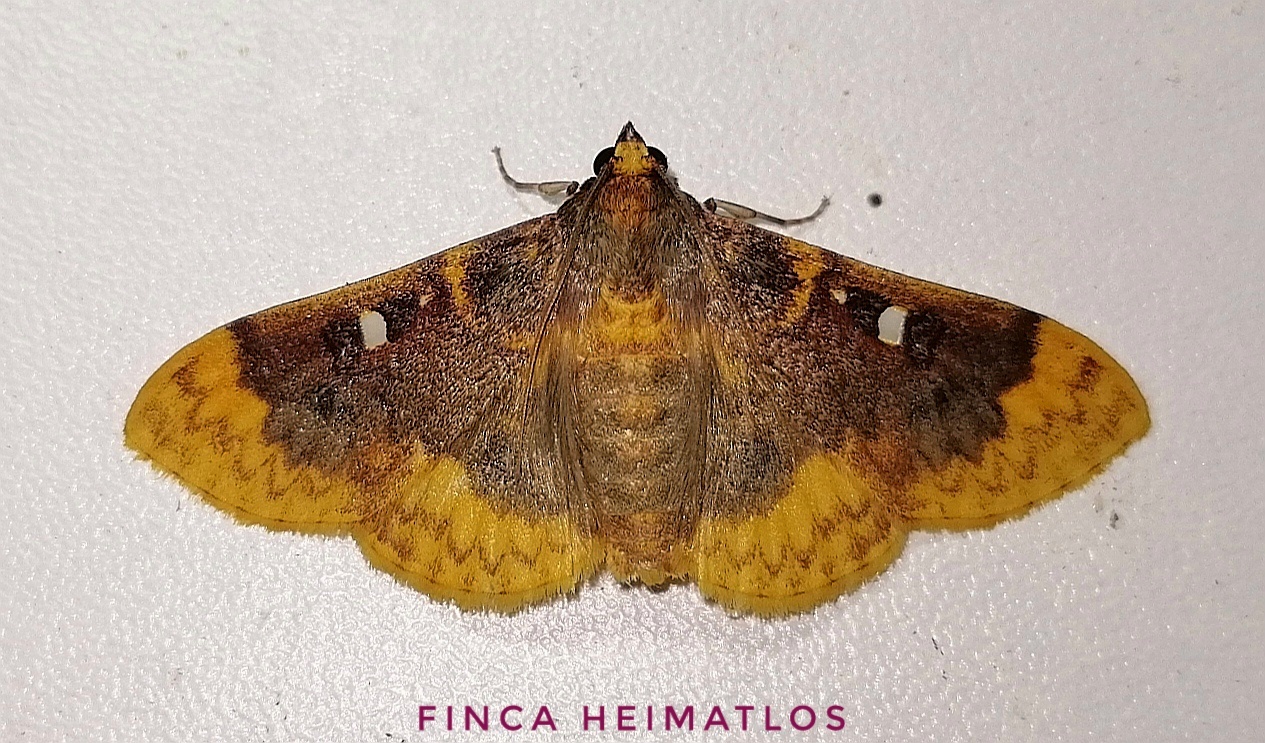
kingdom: Animalia
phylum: Arthropoda
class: Insecta
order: Lepidoptera
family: Crambidae
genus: Polygrammodes
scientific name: Polygrammodes multifenestrata
